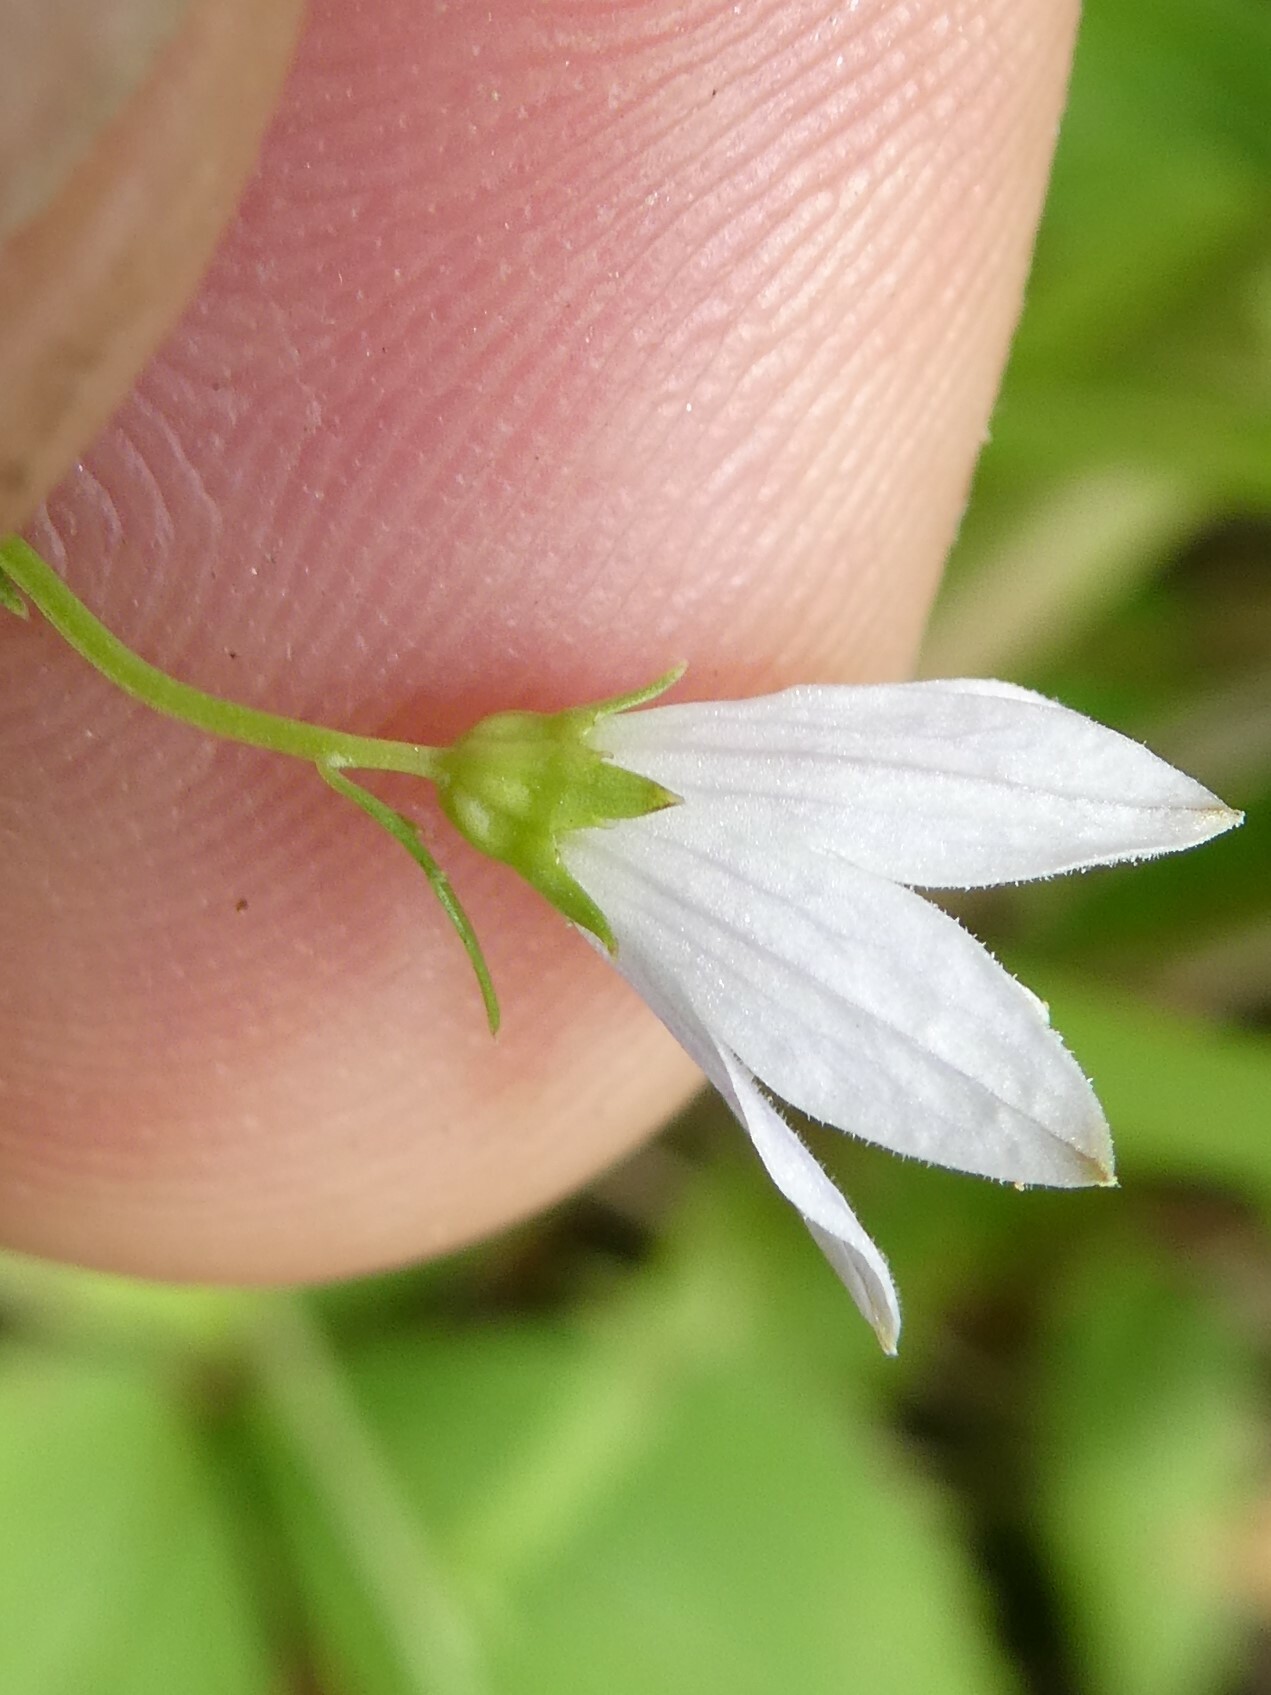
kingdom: Plantae
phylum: Tracheophyta
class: Magnoliopsida
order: Asterales
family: Campanulaceae
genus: Palustricodon
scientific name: Palustricodon aparinoides
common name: Bedstraw bellflower
